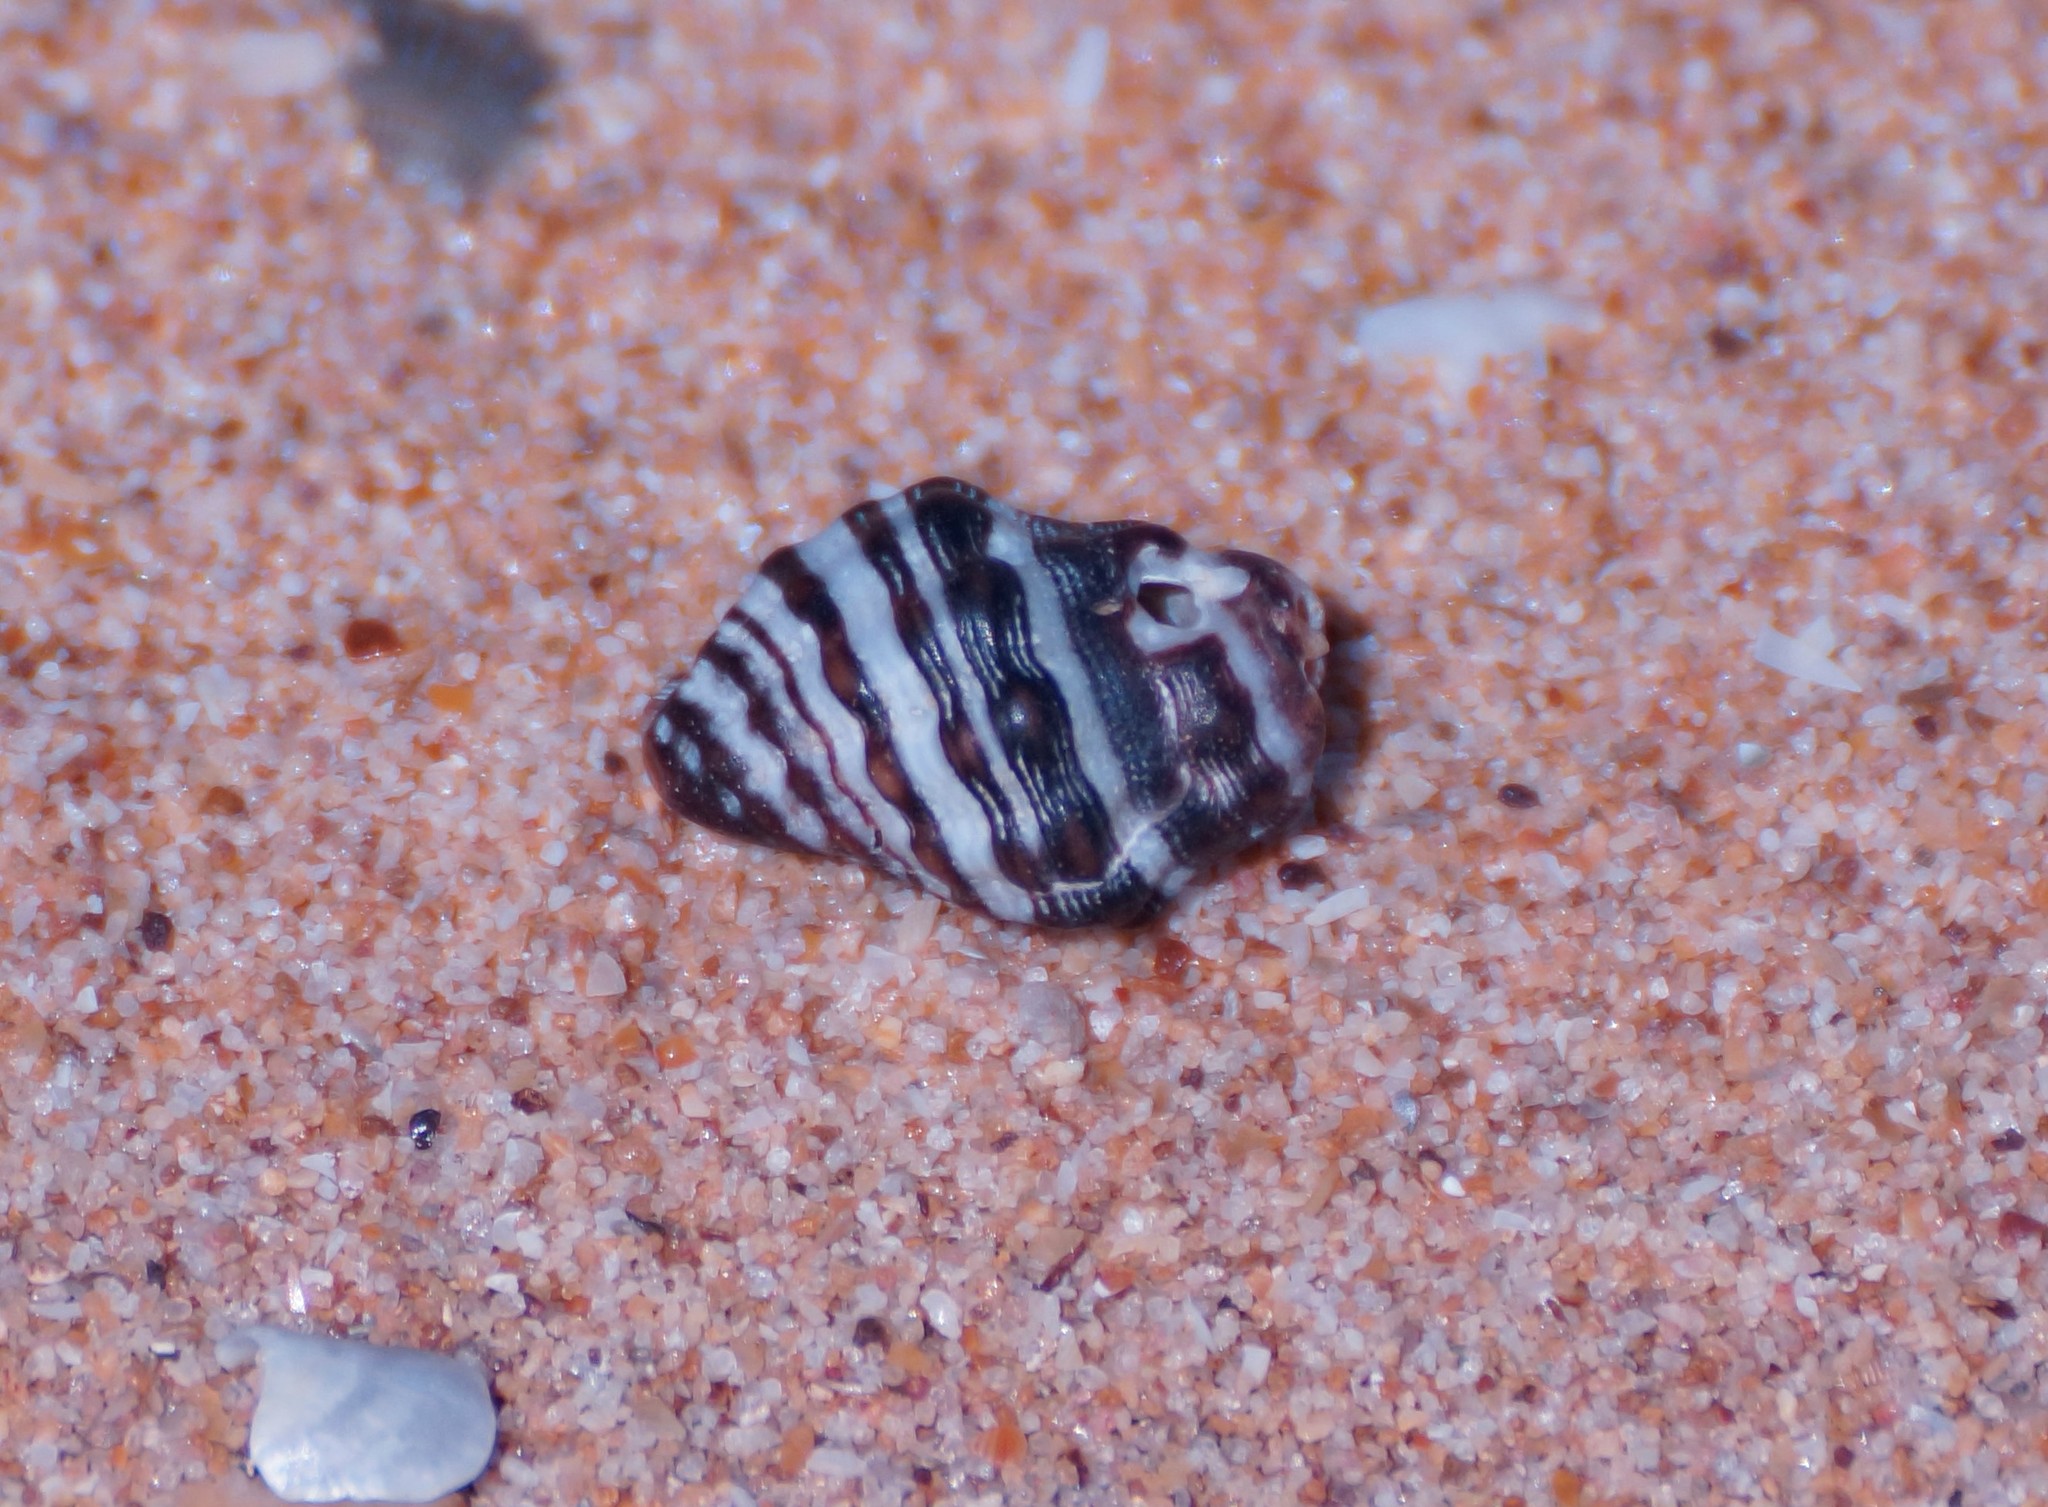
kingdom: Animalia
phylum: Mollusca
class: Gastropoda
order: Neogastropoda
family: Muricidae
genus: Drupella
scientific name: Drupella margariticola
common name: Shouldered castor bean
